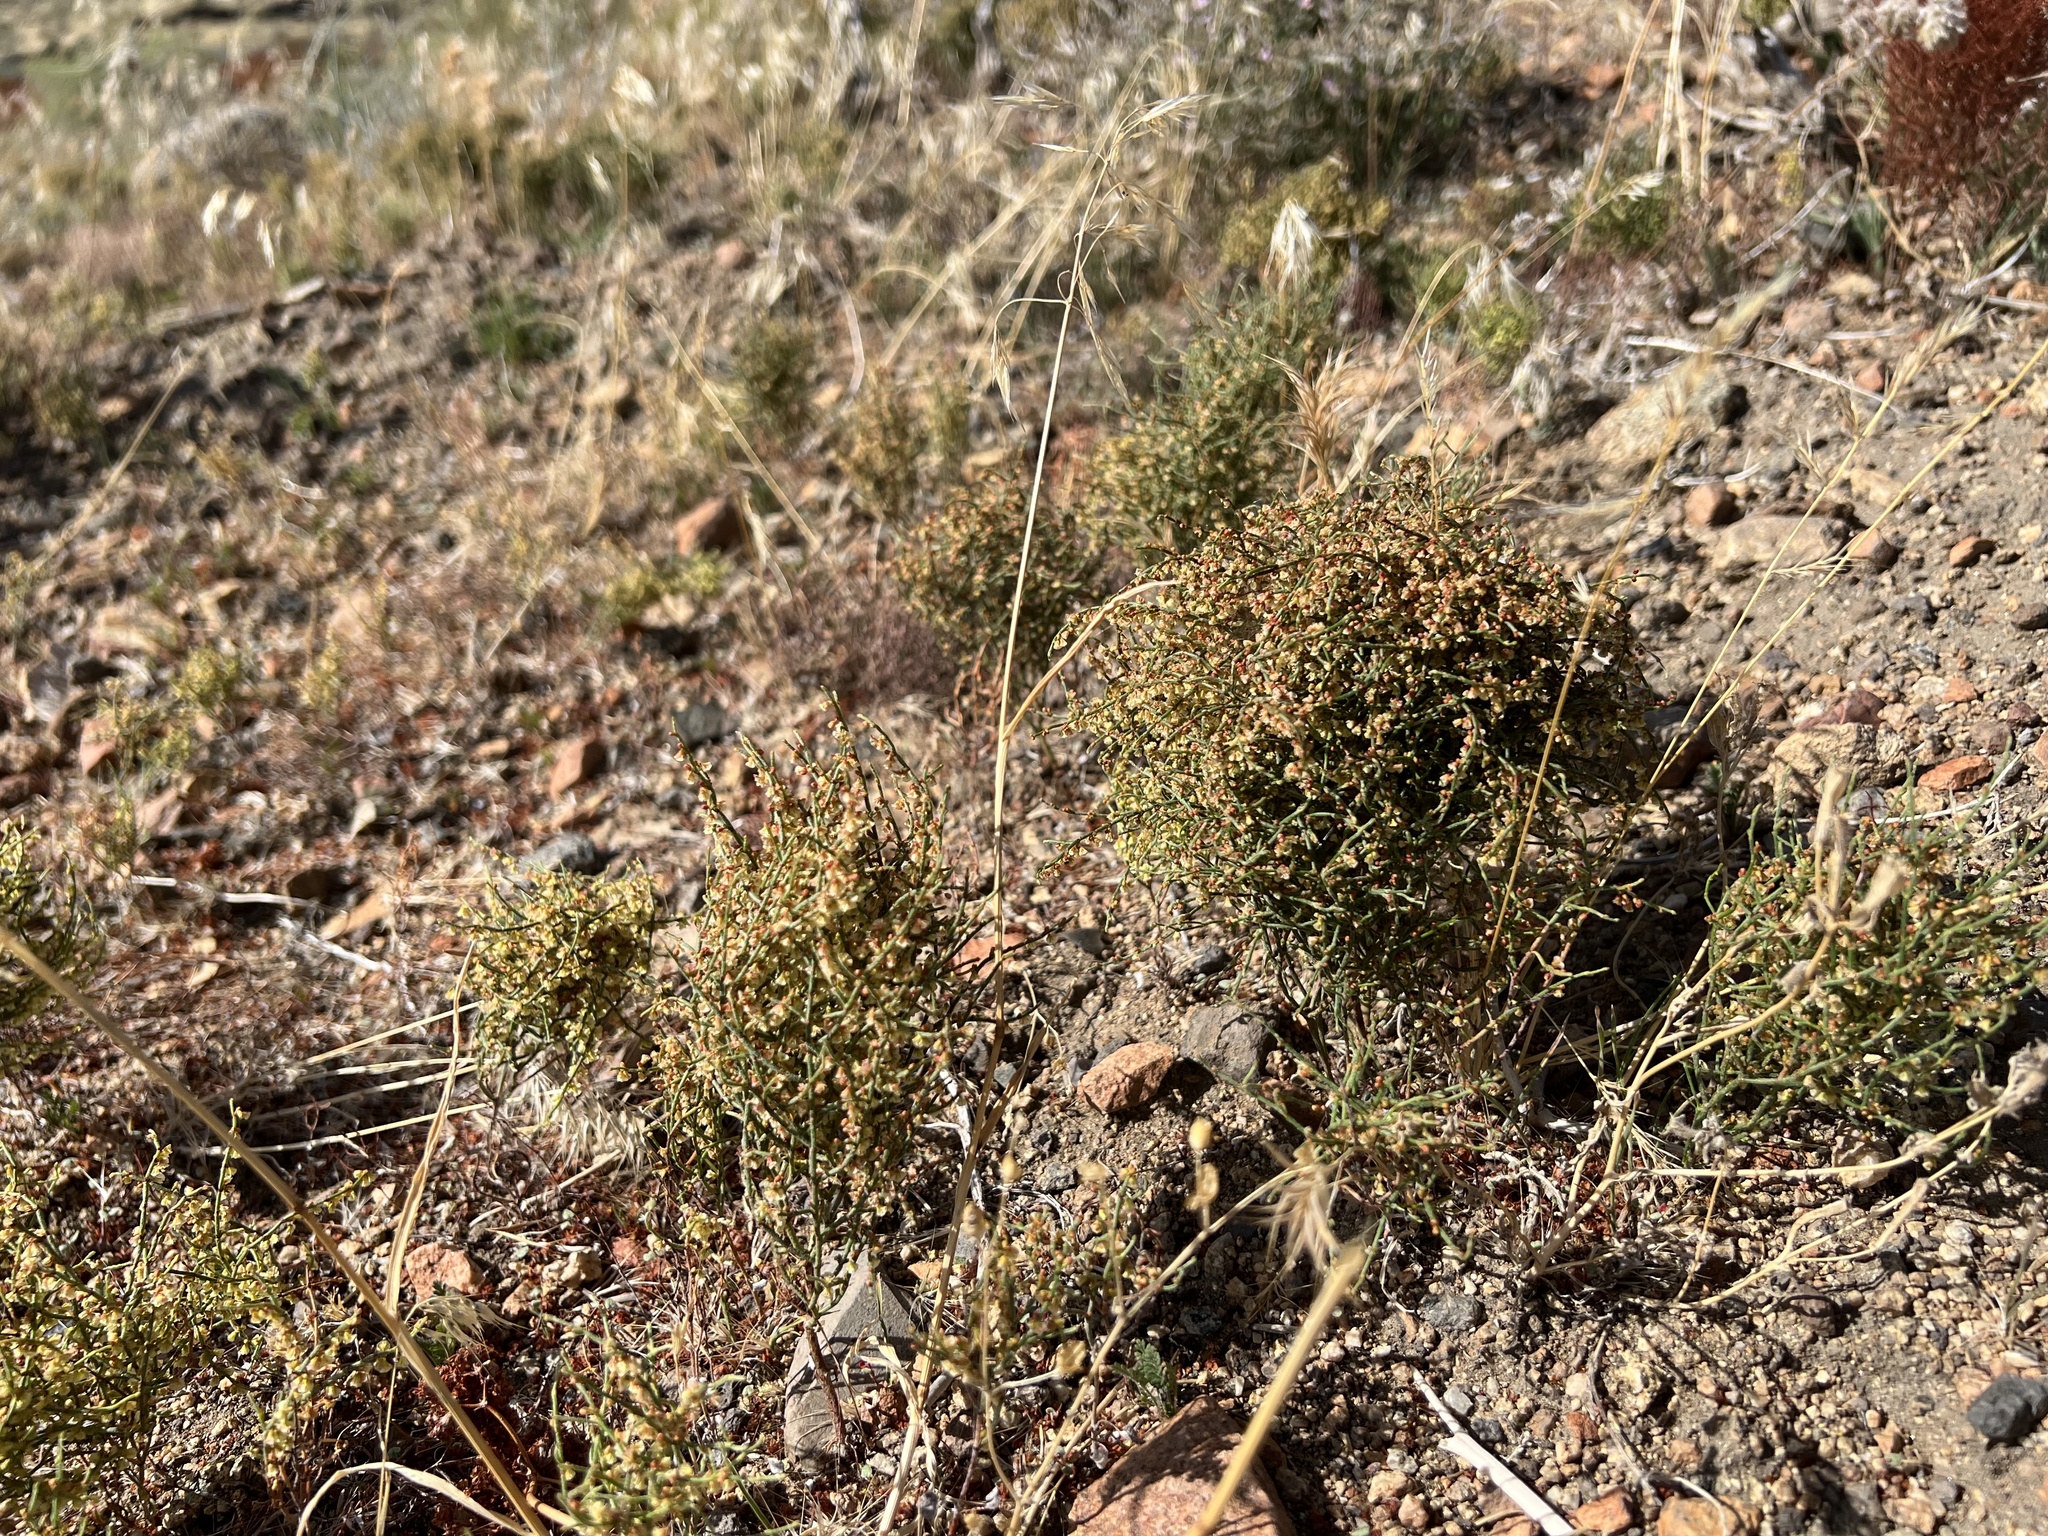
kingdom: Plantae
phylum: Tracheophyta
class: Magnoliopsida
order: Caryophyllales
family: Polygonaceae
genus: Eriogonum
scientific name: Eriogonum nidularium
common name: Bird's-nest wild buckwheat
